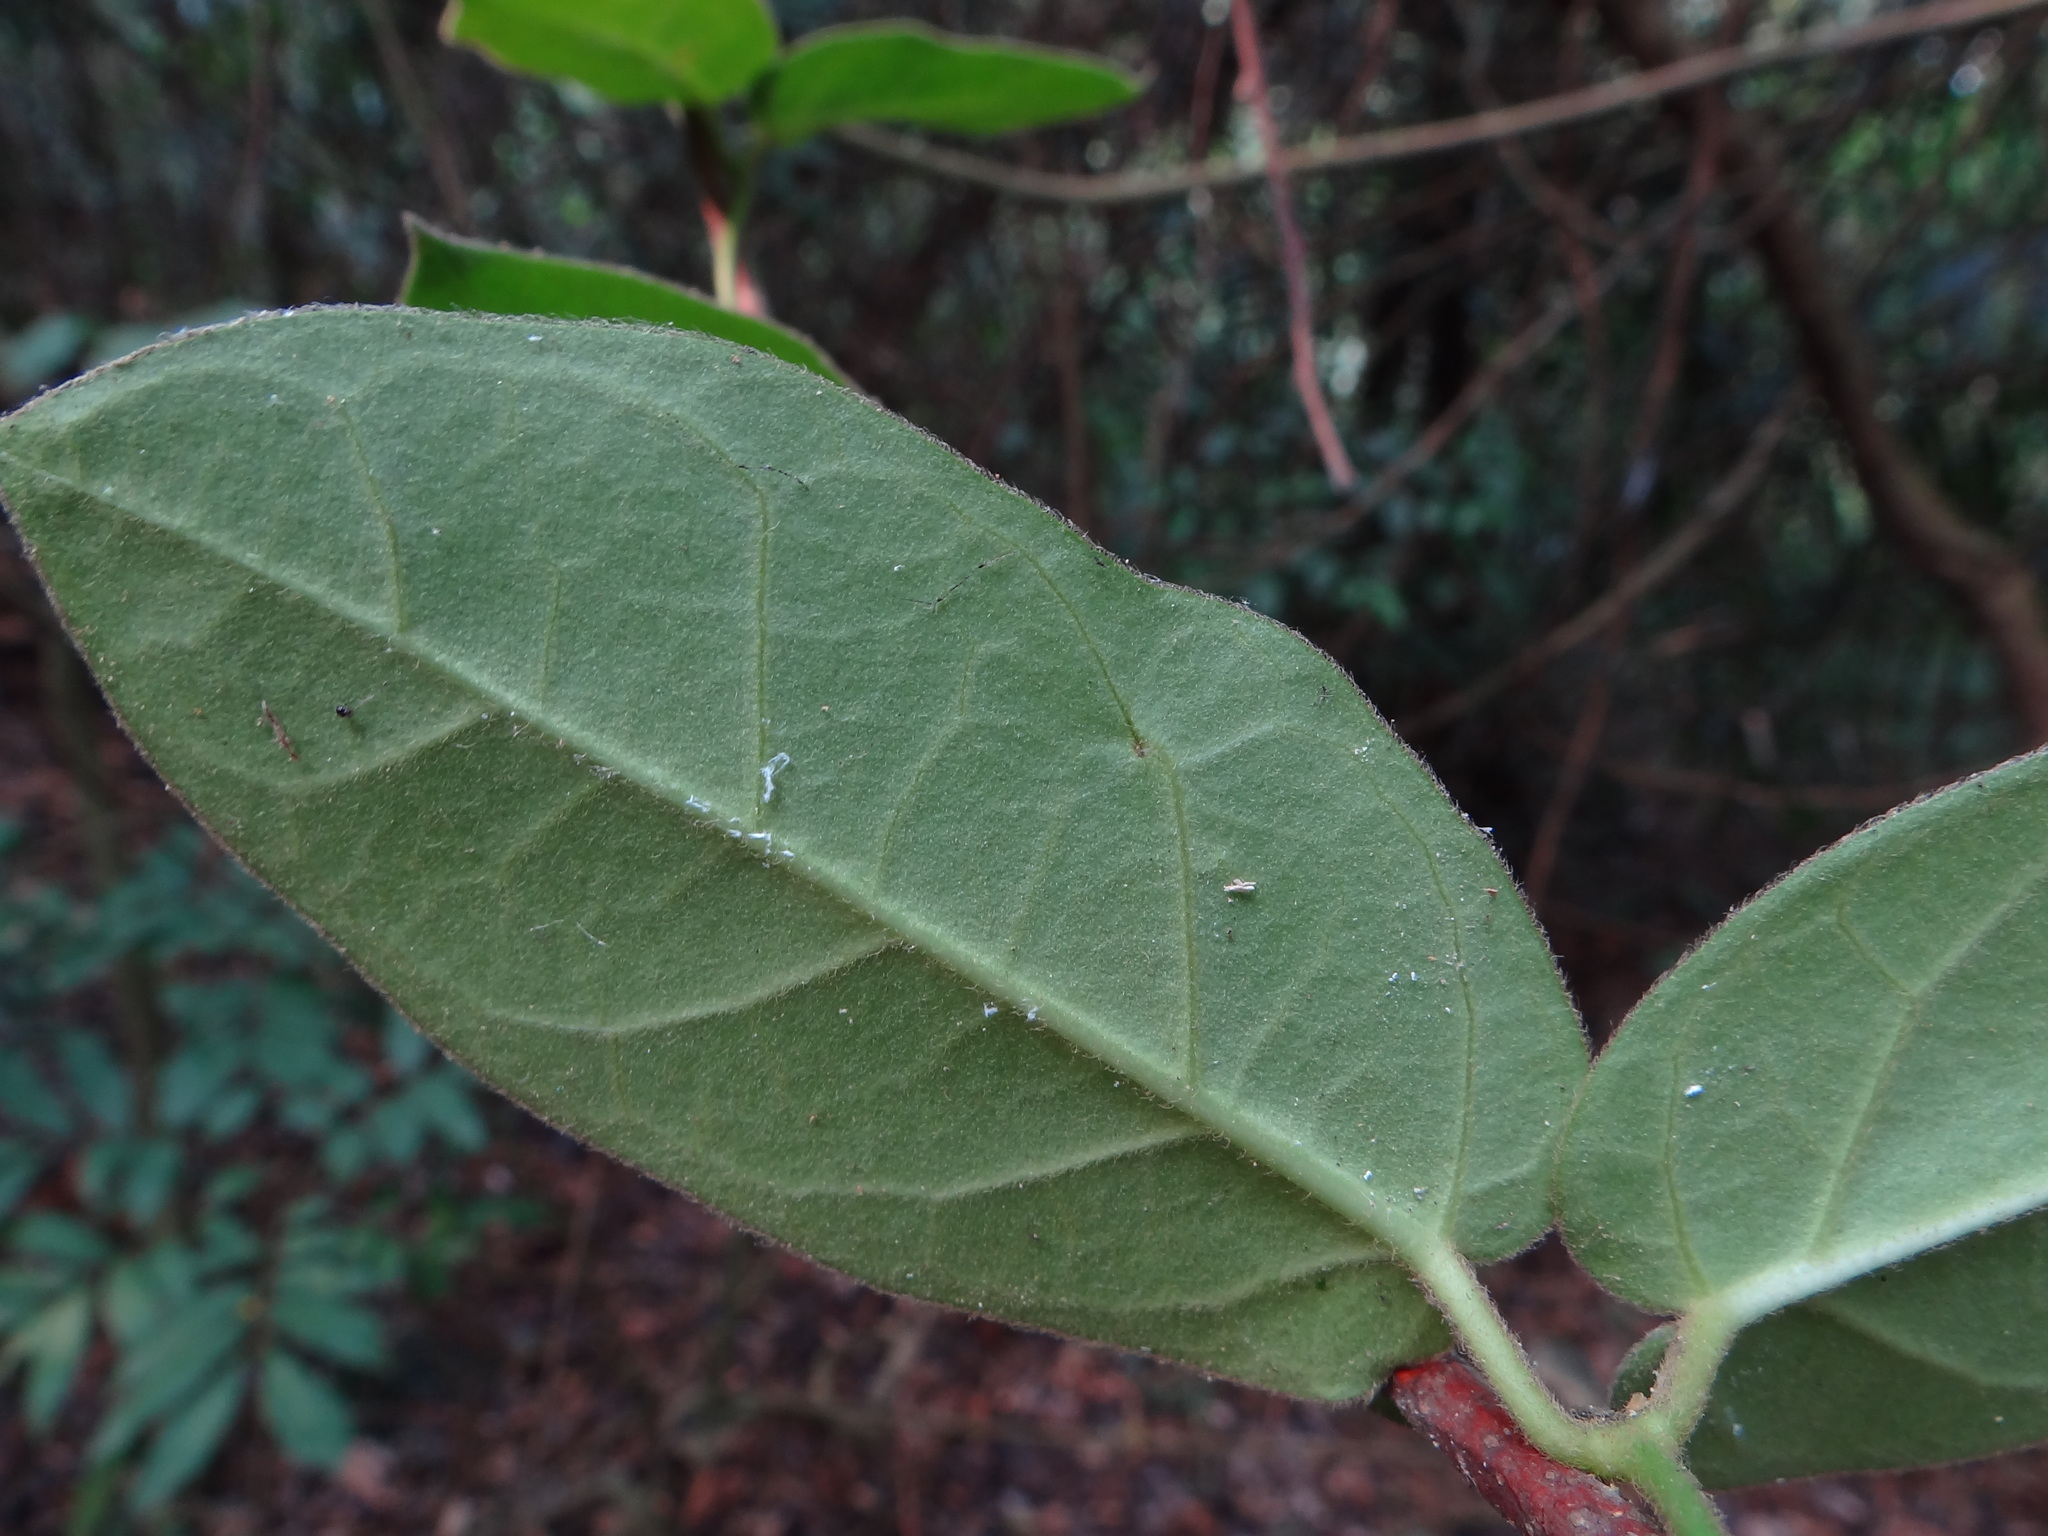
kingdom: Plantae
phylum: Tracheophyta
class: Magnoliopsida
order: Gentianales
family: Apocynaceae
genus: Vincetoxicum
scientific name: Vincetoxicum hirsutum
